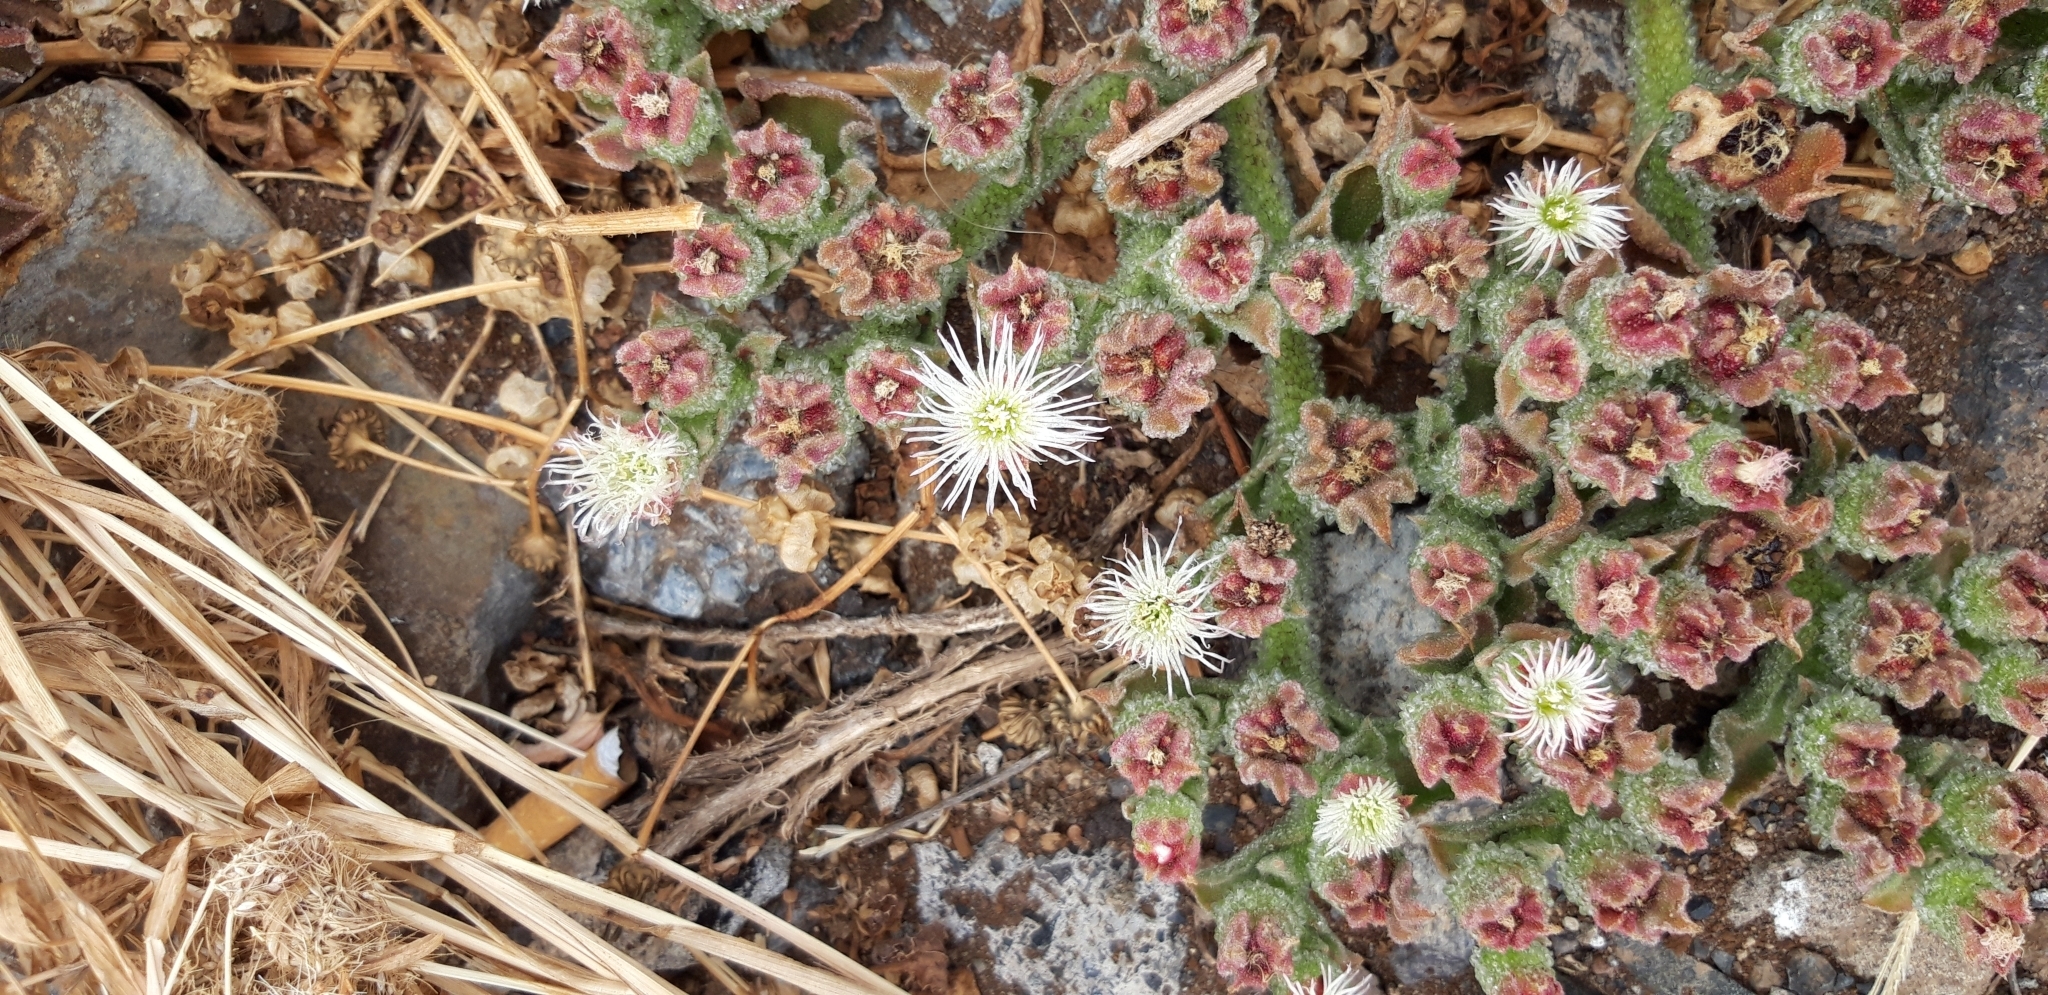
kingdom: Plantae
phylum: Tracheophyta
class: Magnoliopsida
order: Caryophyllales
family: Aizoaceae
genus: Mesembryanthemum
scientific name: Mesembryanthemum crystallinum
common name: Common iceplant
